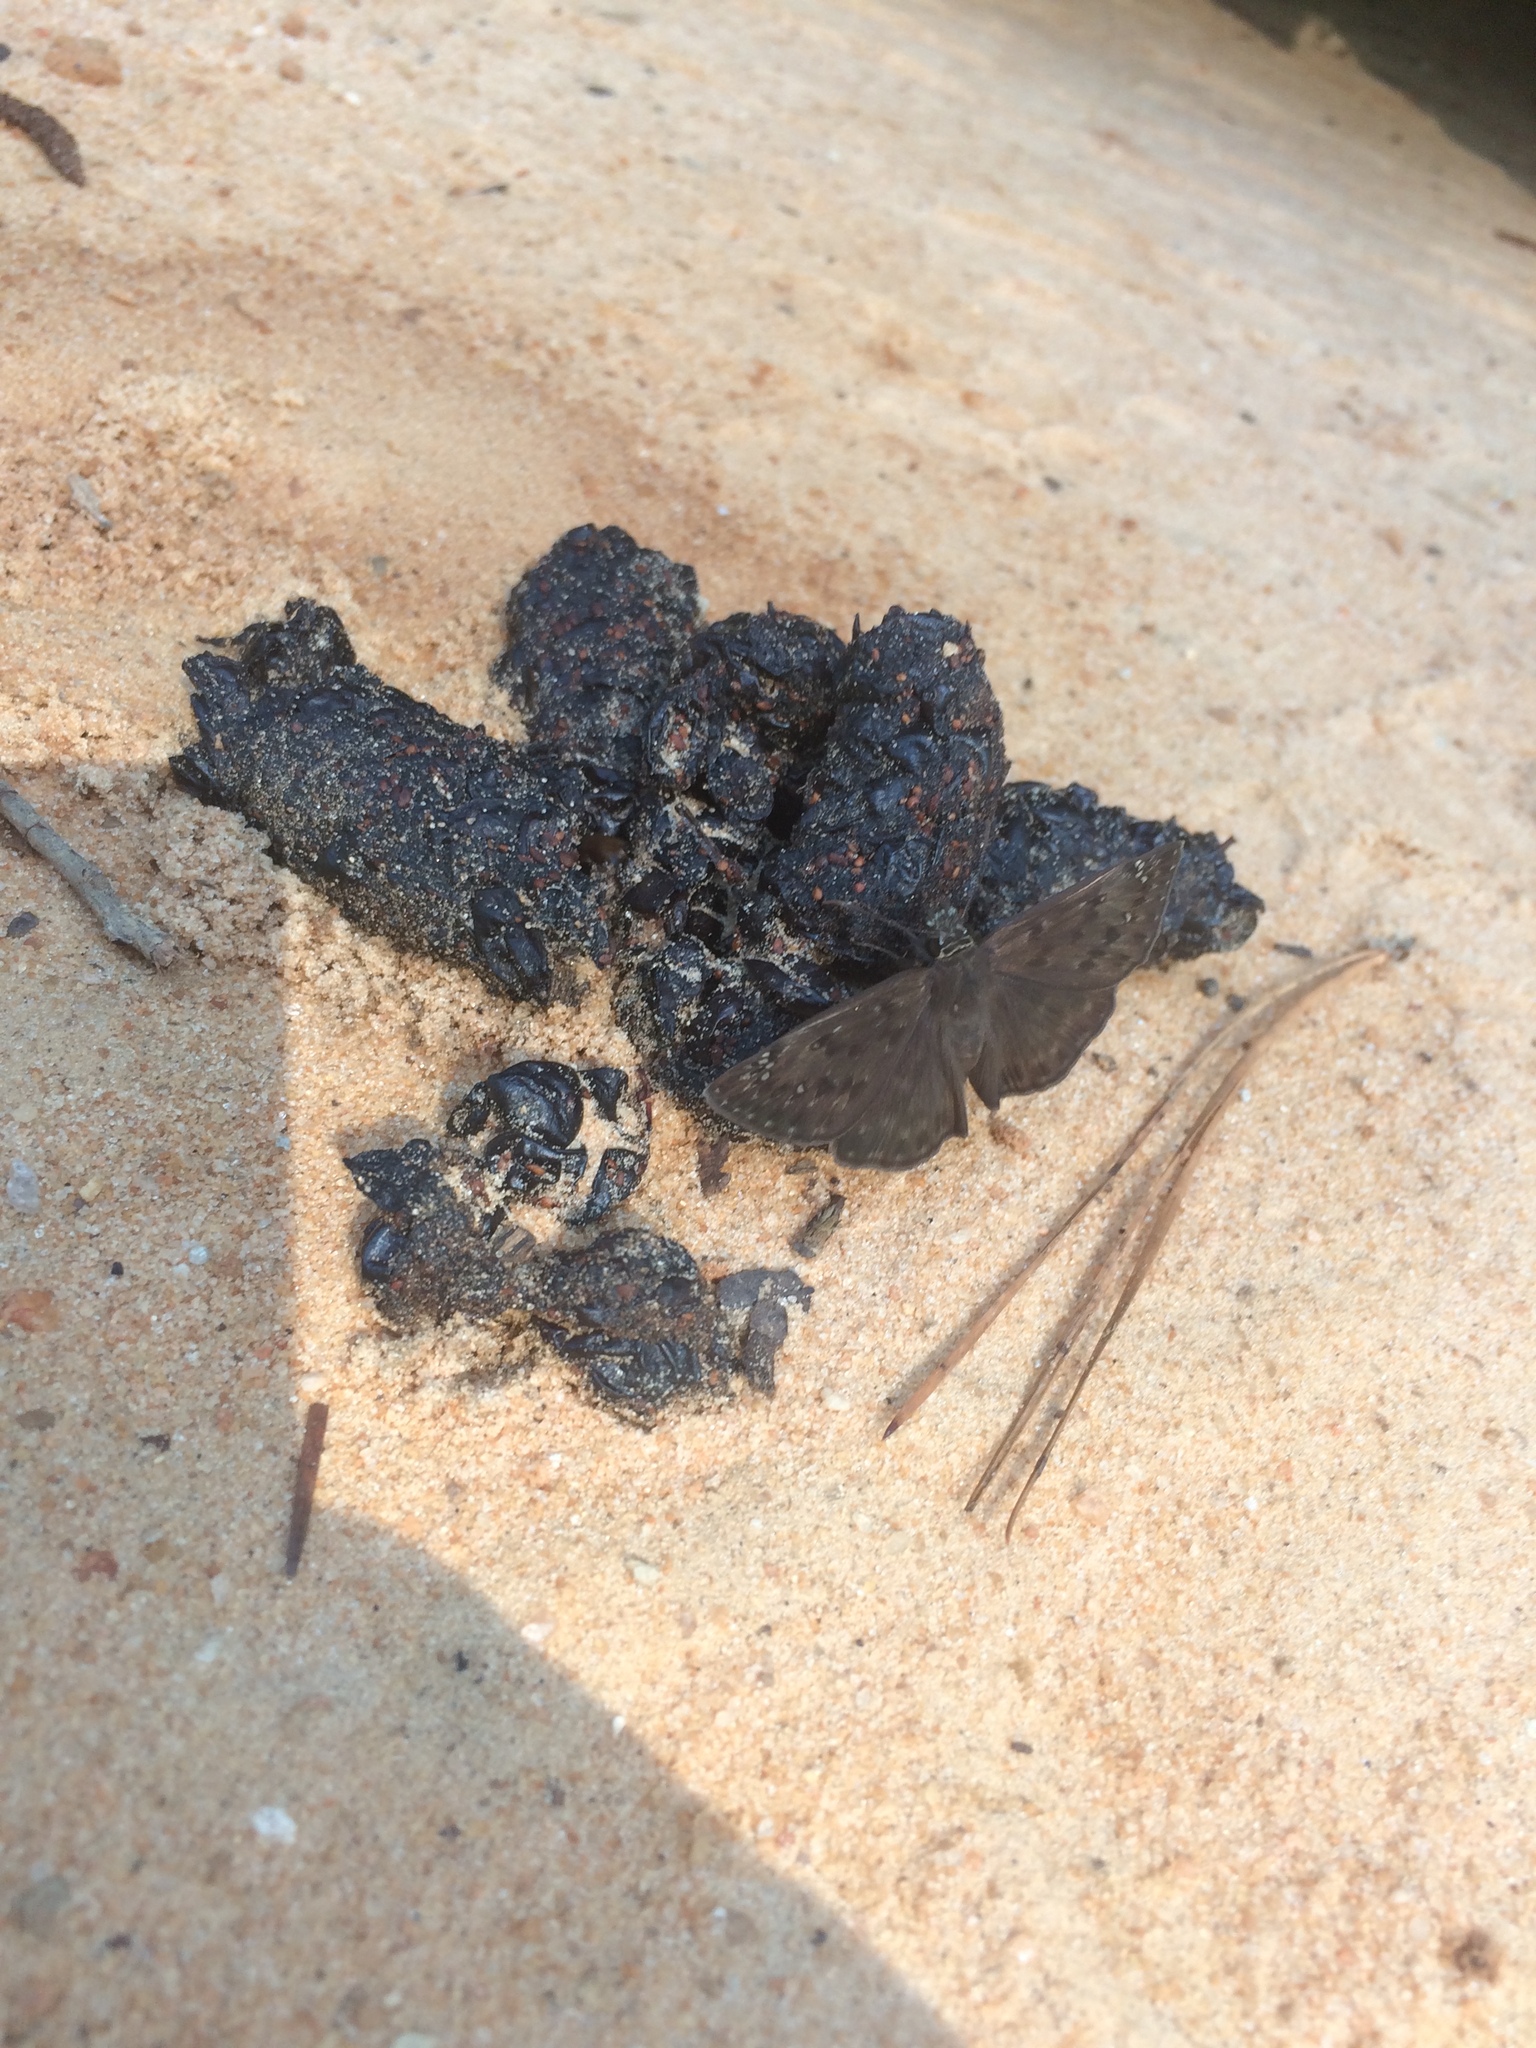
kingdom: Animalia
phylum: Arthropoda
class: Insecta
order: Lepidoptera
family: Hesperiidae
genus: Erynnis
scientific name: Erynnis horatius
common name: Horace's duskywing
